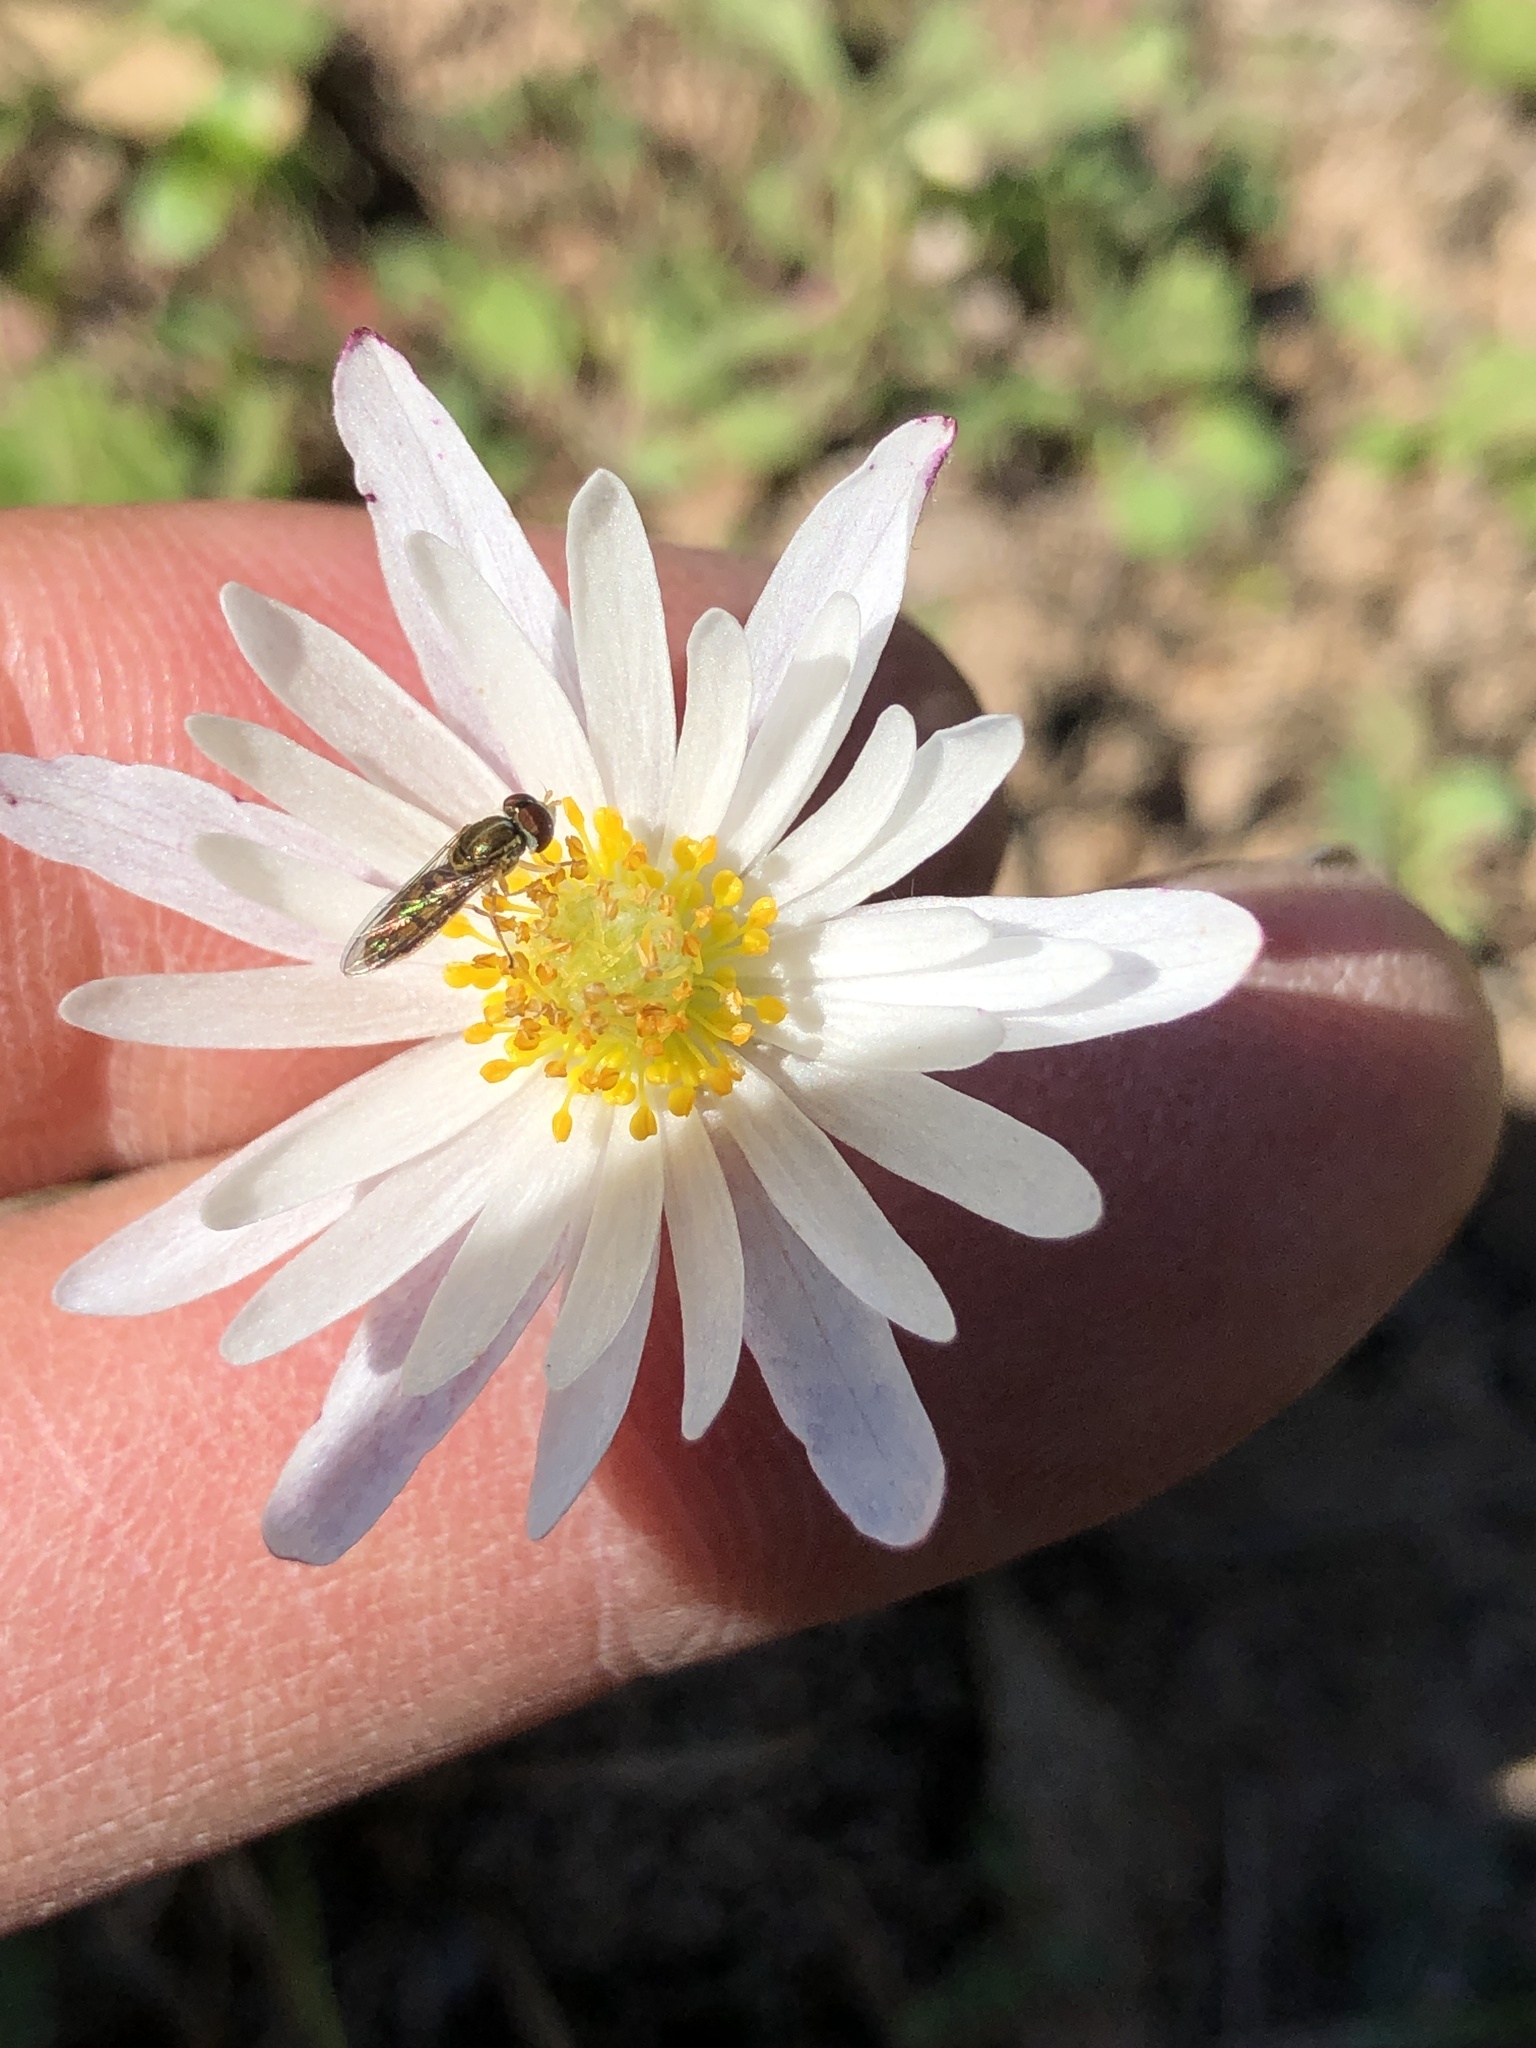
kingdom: Plantae
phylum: Tracheophyta
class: Magnoliopsida
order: Ranunculales
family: Ranunculaceae
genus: Anemone
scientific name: Anemone caroliniana
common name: Carolina anemone
